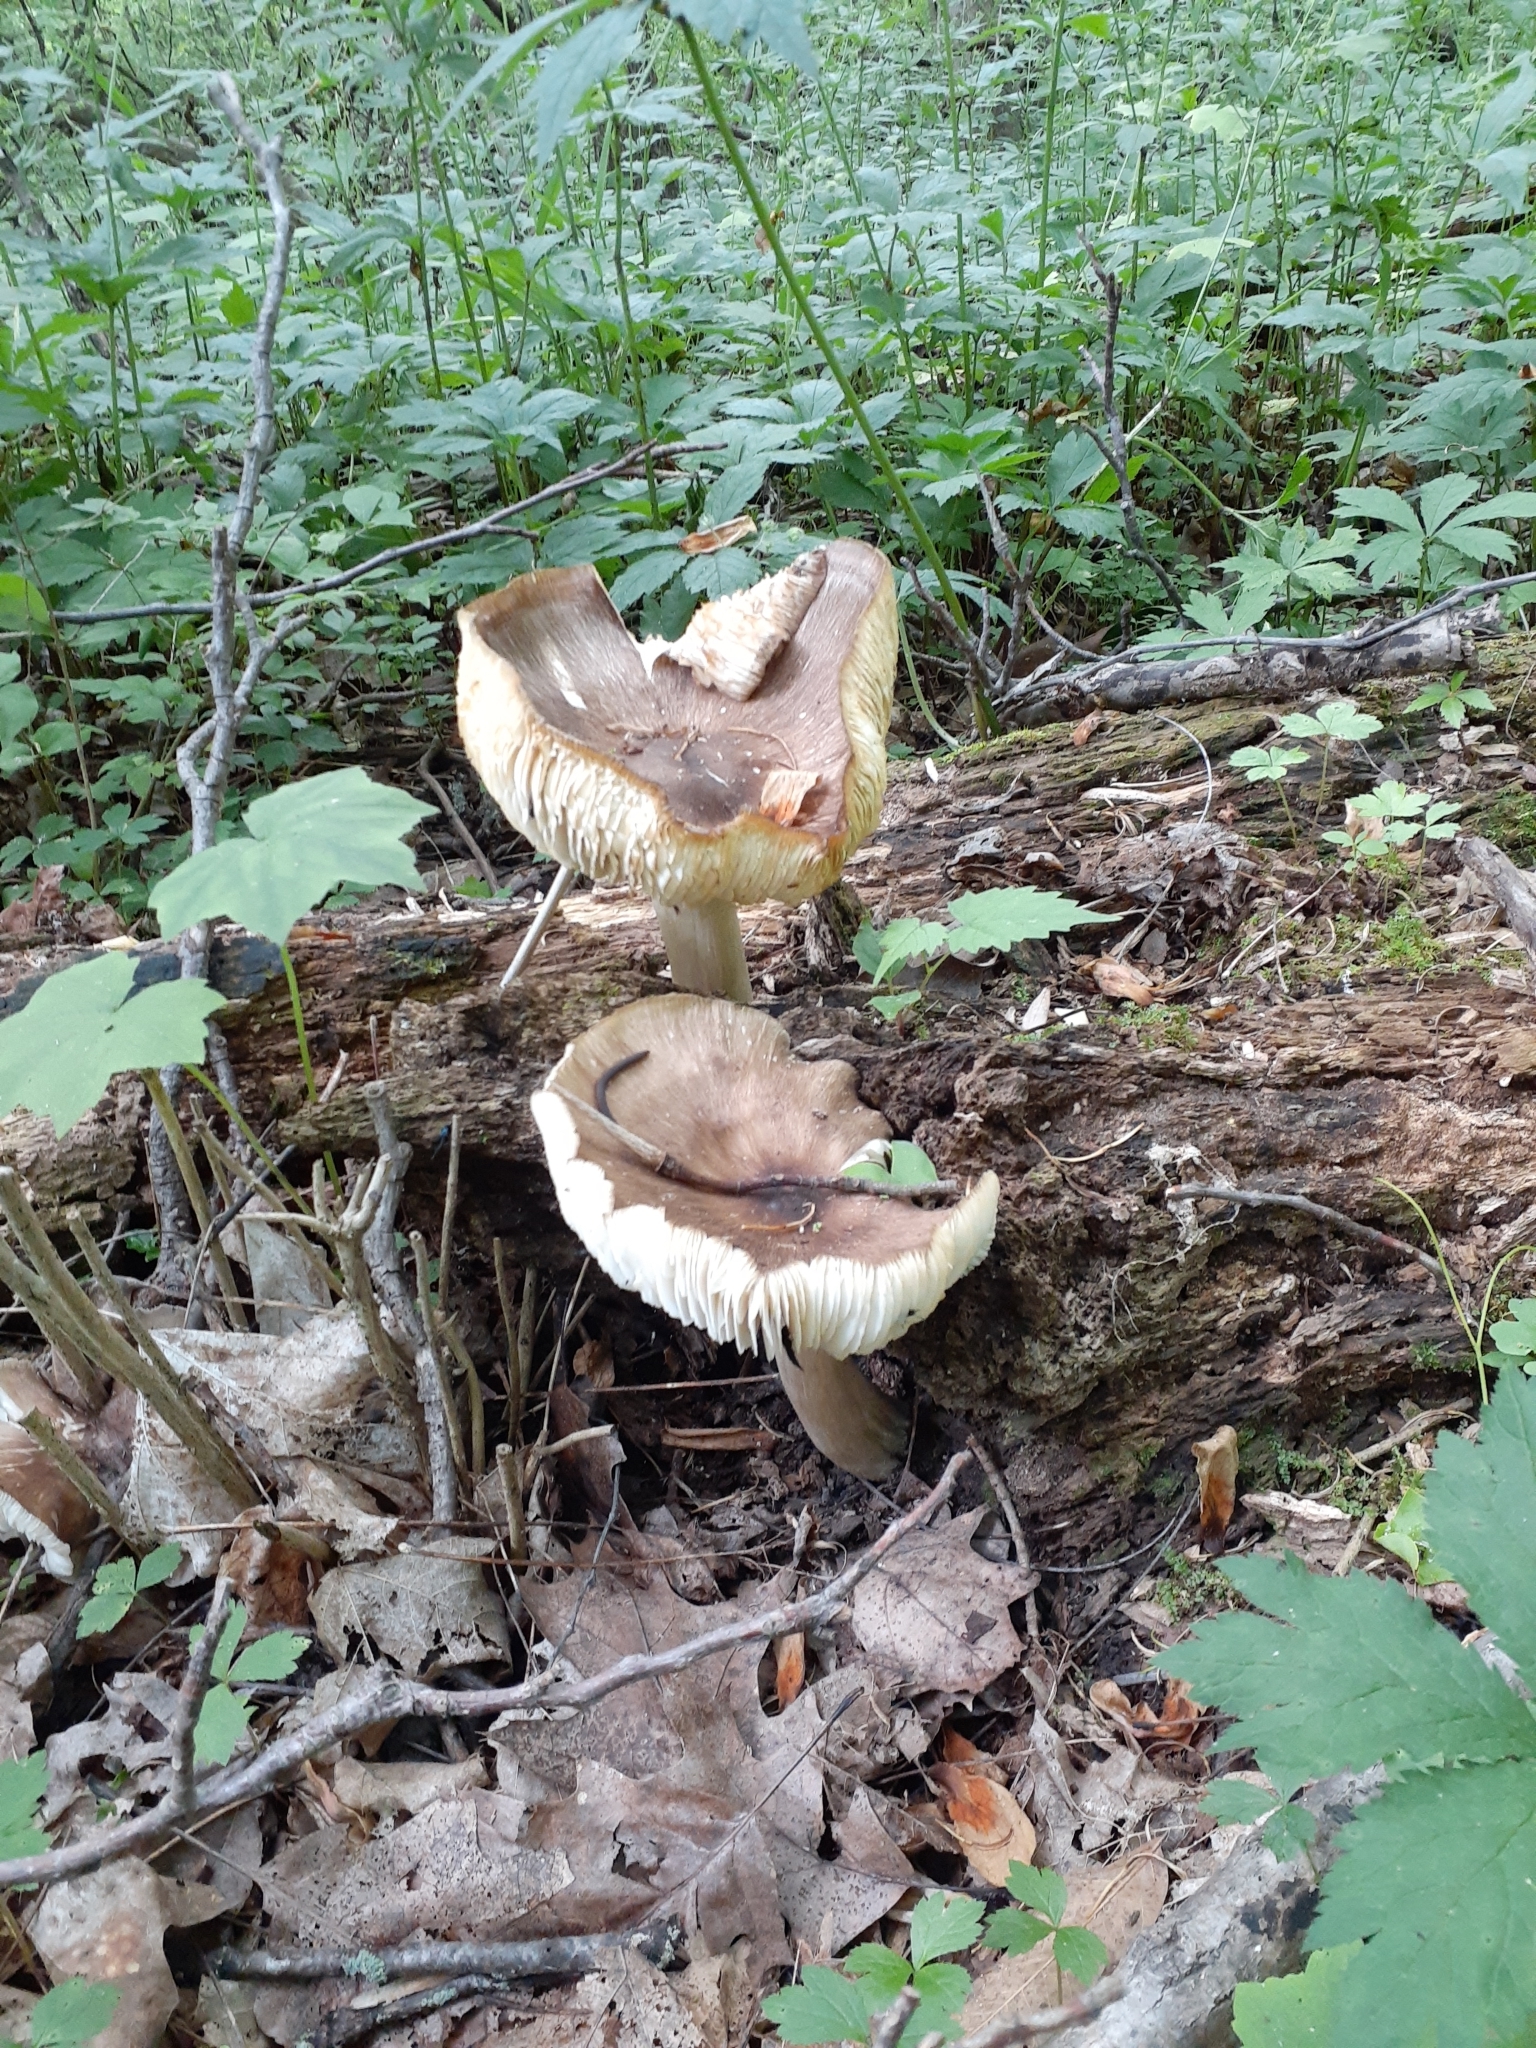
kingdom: Fungi
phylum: Basidiomycota
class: Agaricomycetes
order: Agaricales
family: Tricholomataceae
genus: Megacollybia
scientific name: Megacollybia rodmanii
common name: Eastern american platterful mushroom
